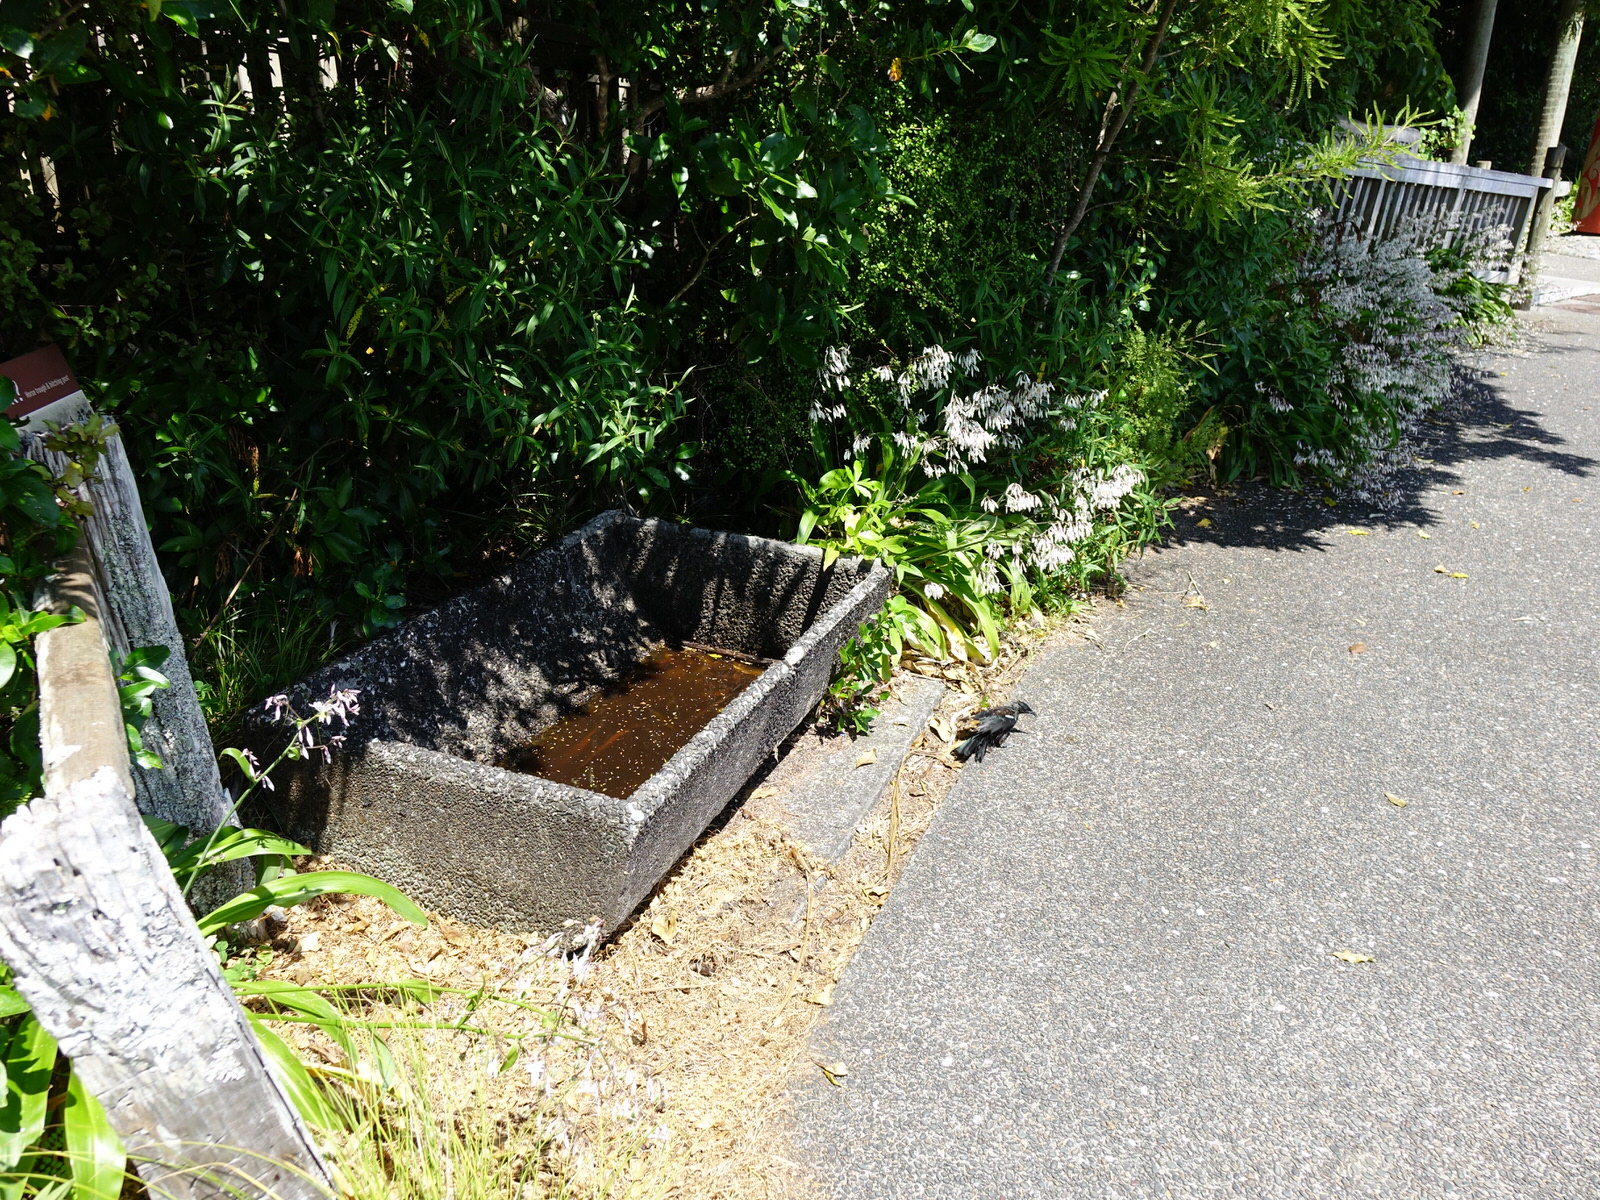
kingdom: Animalia
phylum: Chordata
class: Aves
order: Passeriformes
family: Meliphagidae
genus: Prosthemadera
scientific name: Prosthemadera novaeseelandiae
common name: Tui
